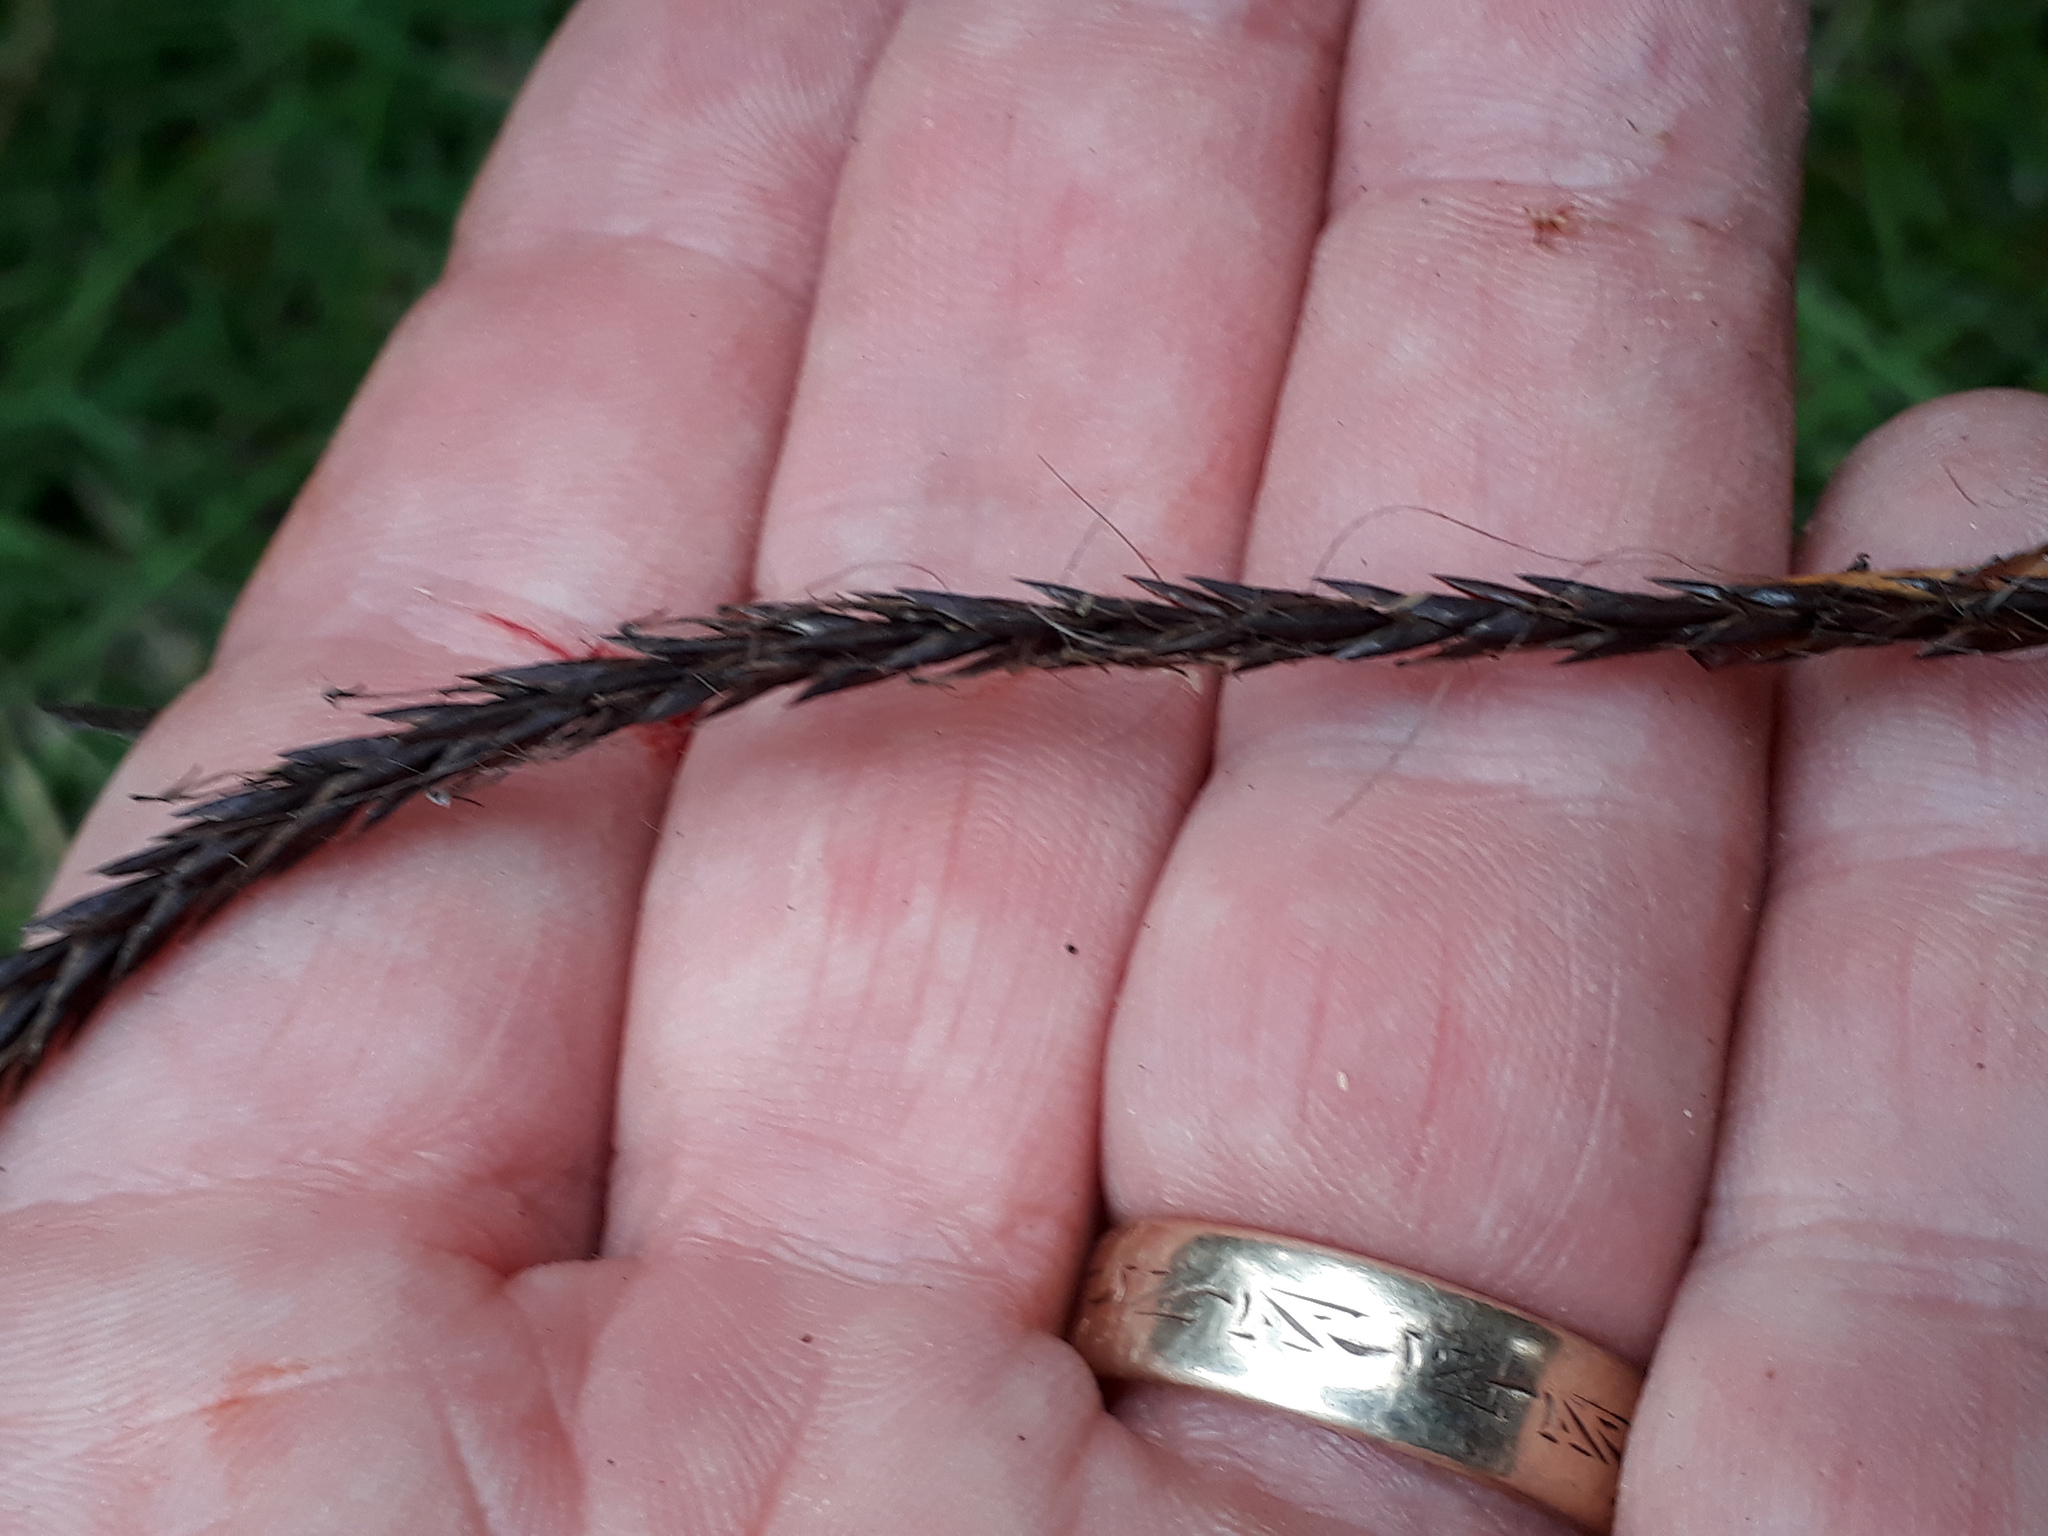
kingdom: Plantae
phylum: Tracheophyta
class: Liliopsida
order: Poales
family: Cyperaceae
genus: Carex
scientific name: Carex auceps
